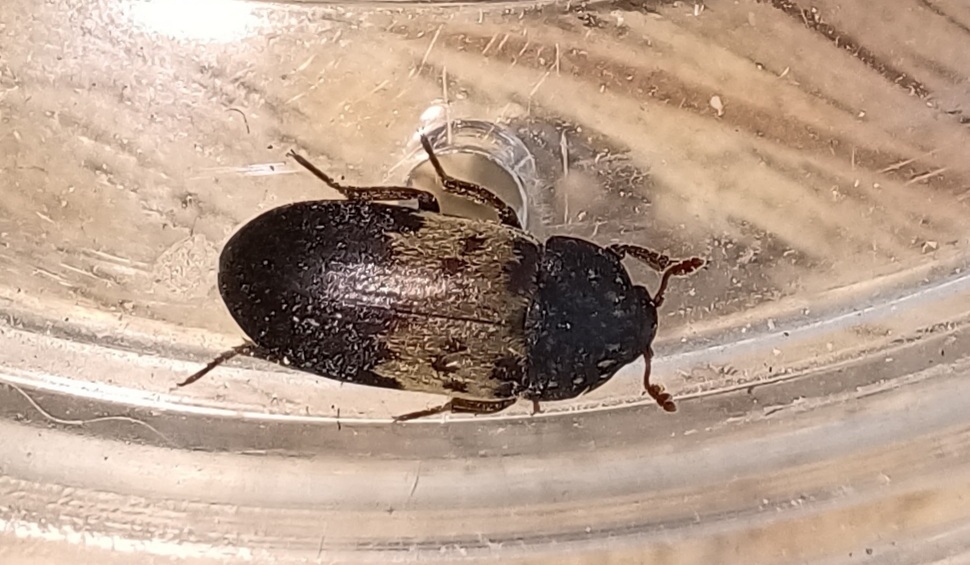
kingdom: Animalia
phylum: Arthropoda
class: Insecta
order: Coleoptera
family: Dermestidae
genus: Dermestes
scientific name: Dermestes lardarius
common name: Larder beetle
